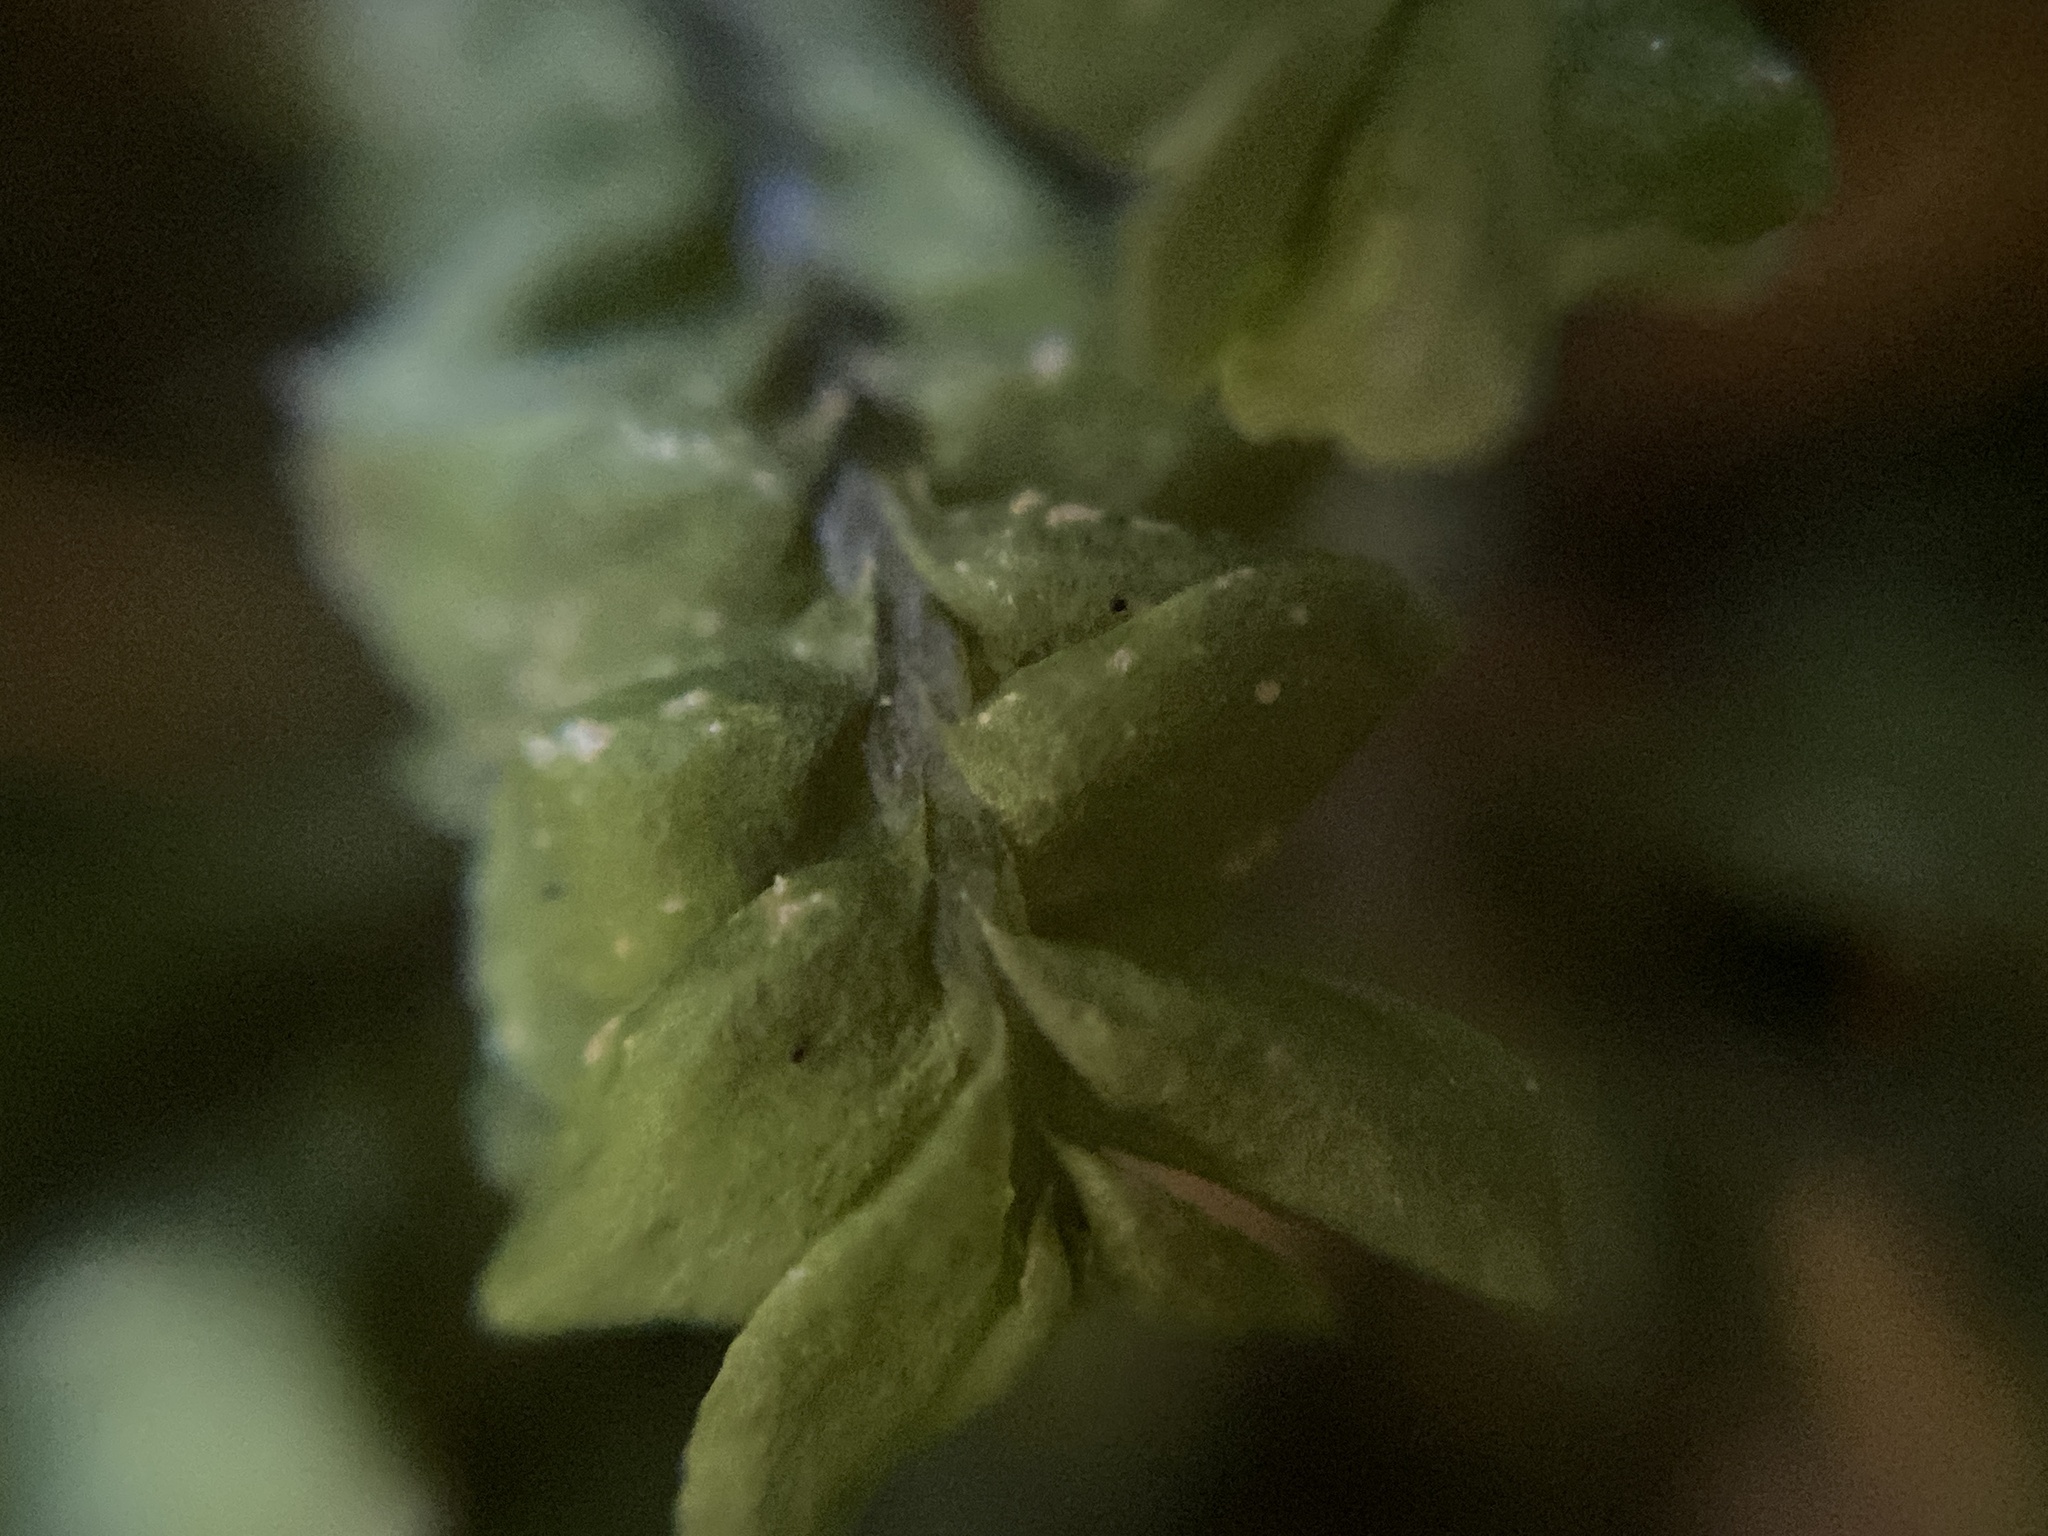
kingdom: Plantae
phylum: Marchantiophyta
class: Jungermanniopsida
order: Jungermanniales
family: Plagiochilaceae
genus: Plagiochila
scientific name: Plagiochila asplenioides
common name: Greater featherwort
